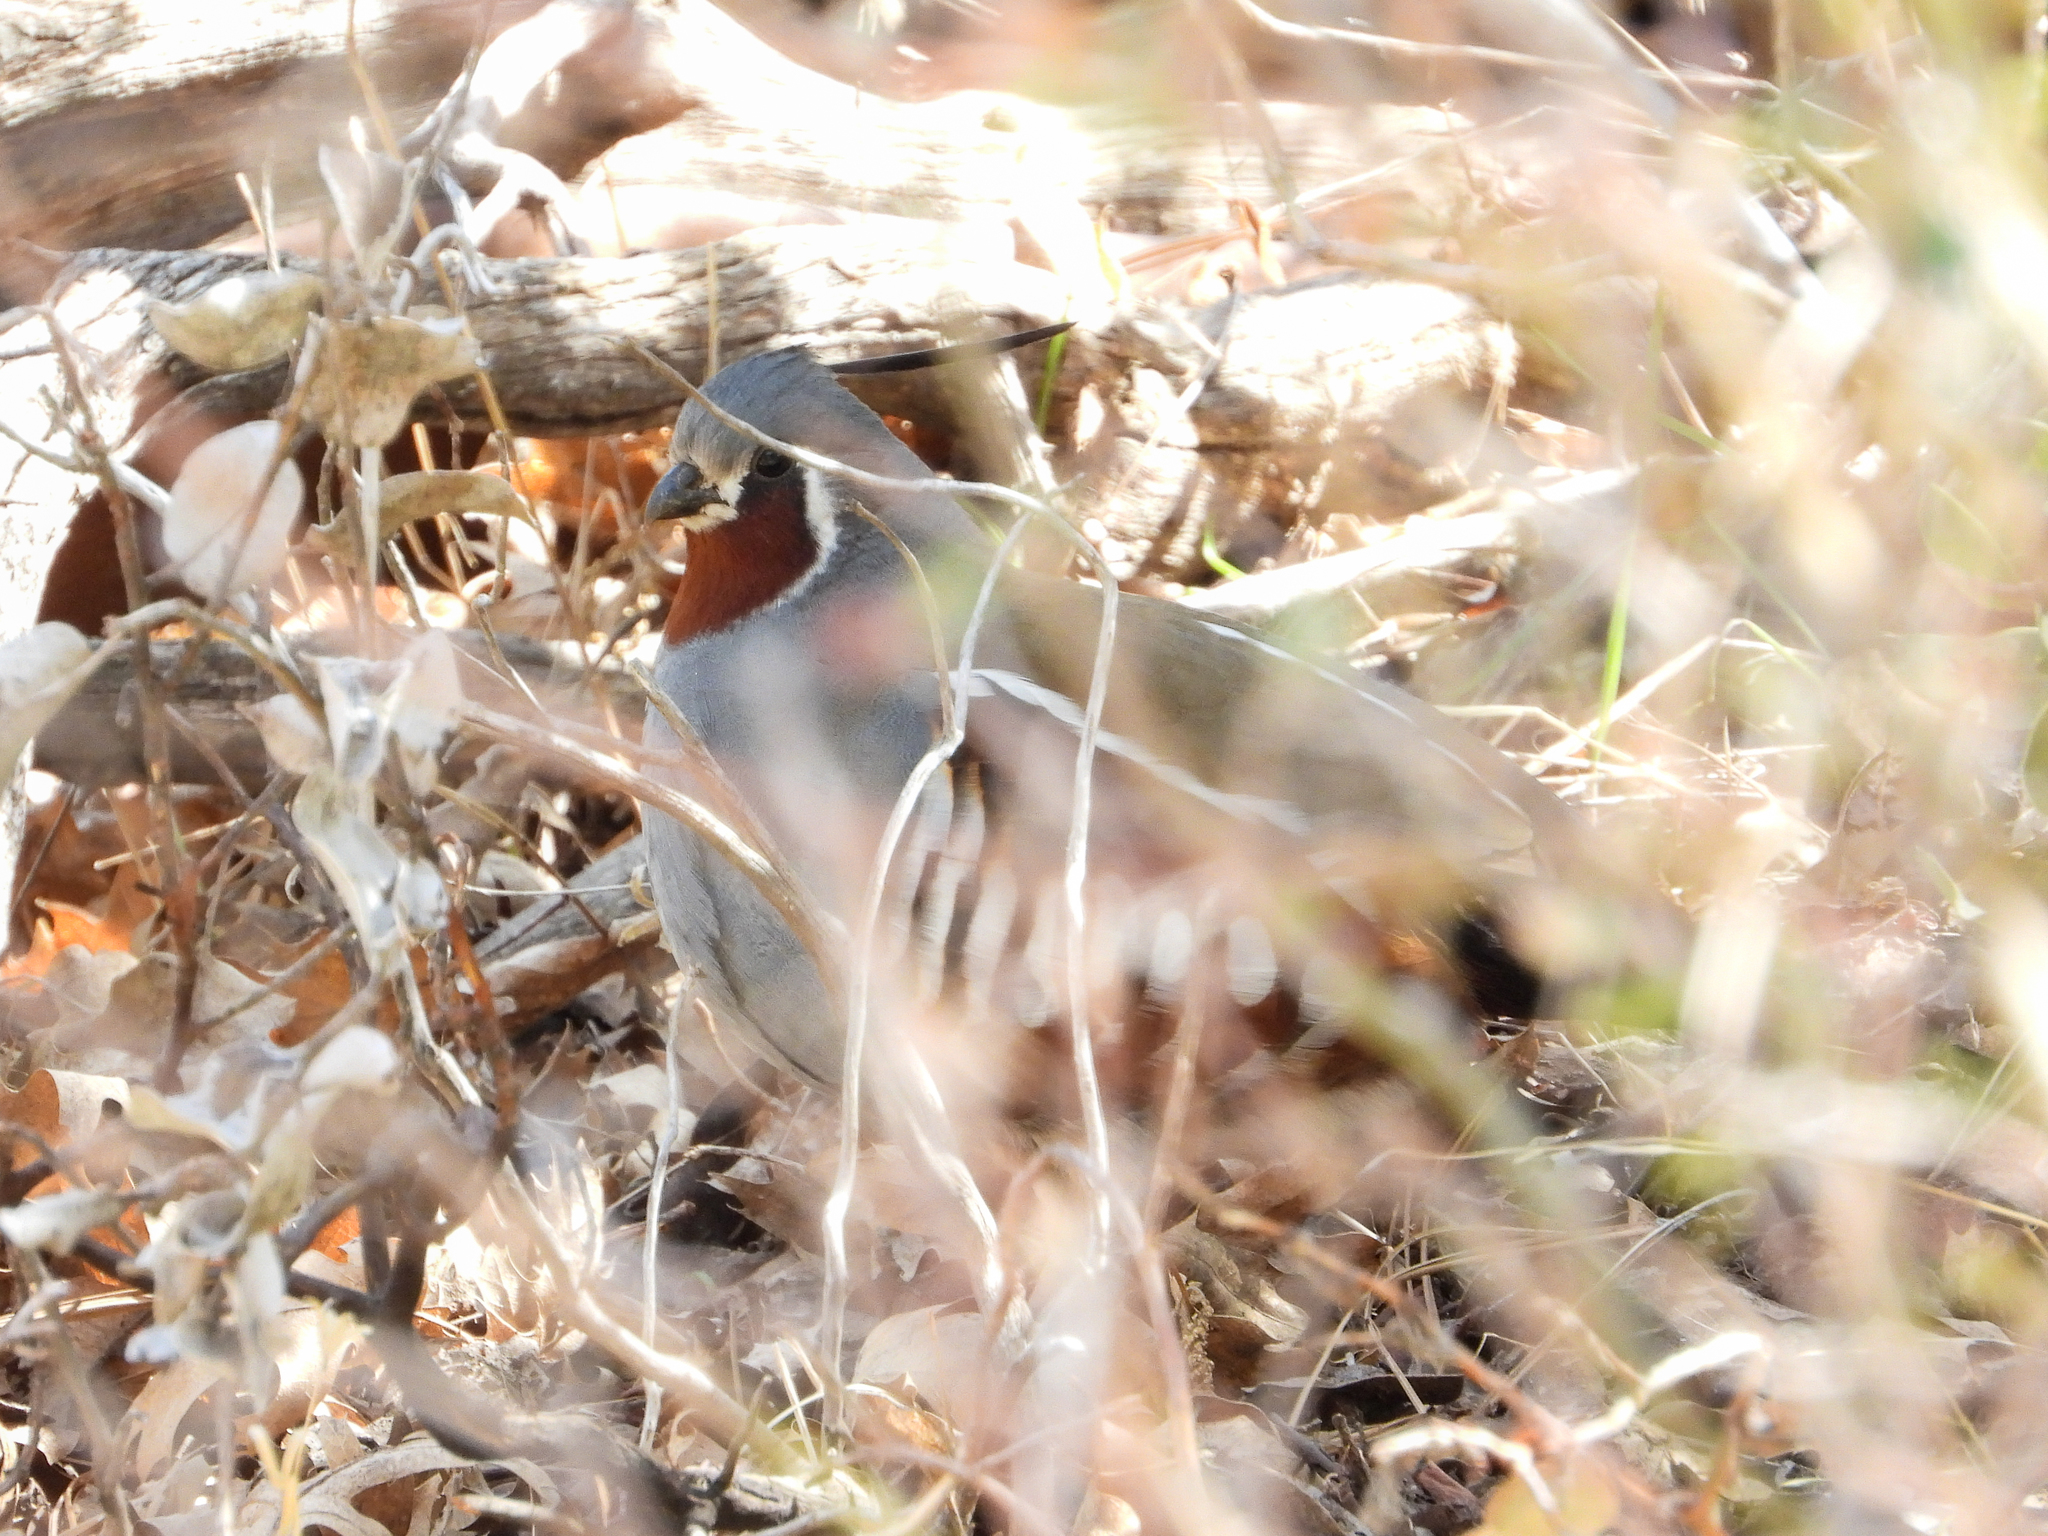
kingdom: Animalia
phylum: Chordata
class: Aves
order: Galliformes
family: Odontophoridae
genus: Oreortyx
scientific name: Oreortyx pictus
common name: Mountain quail
